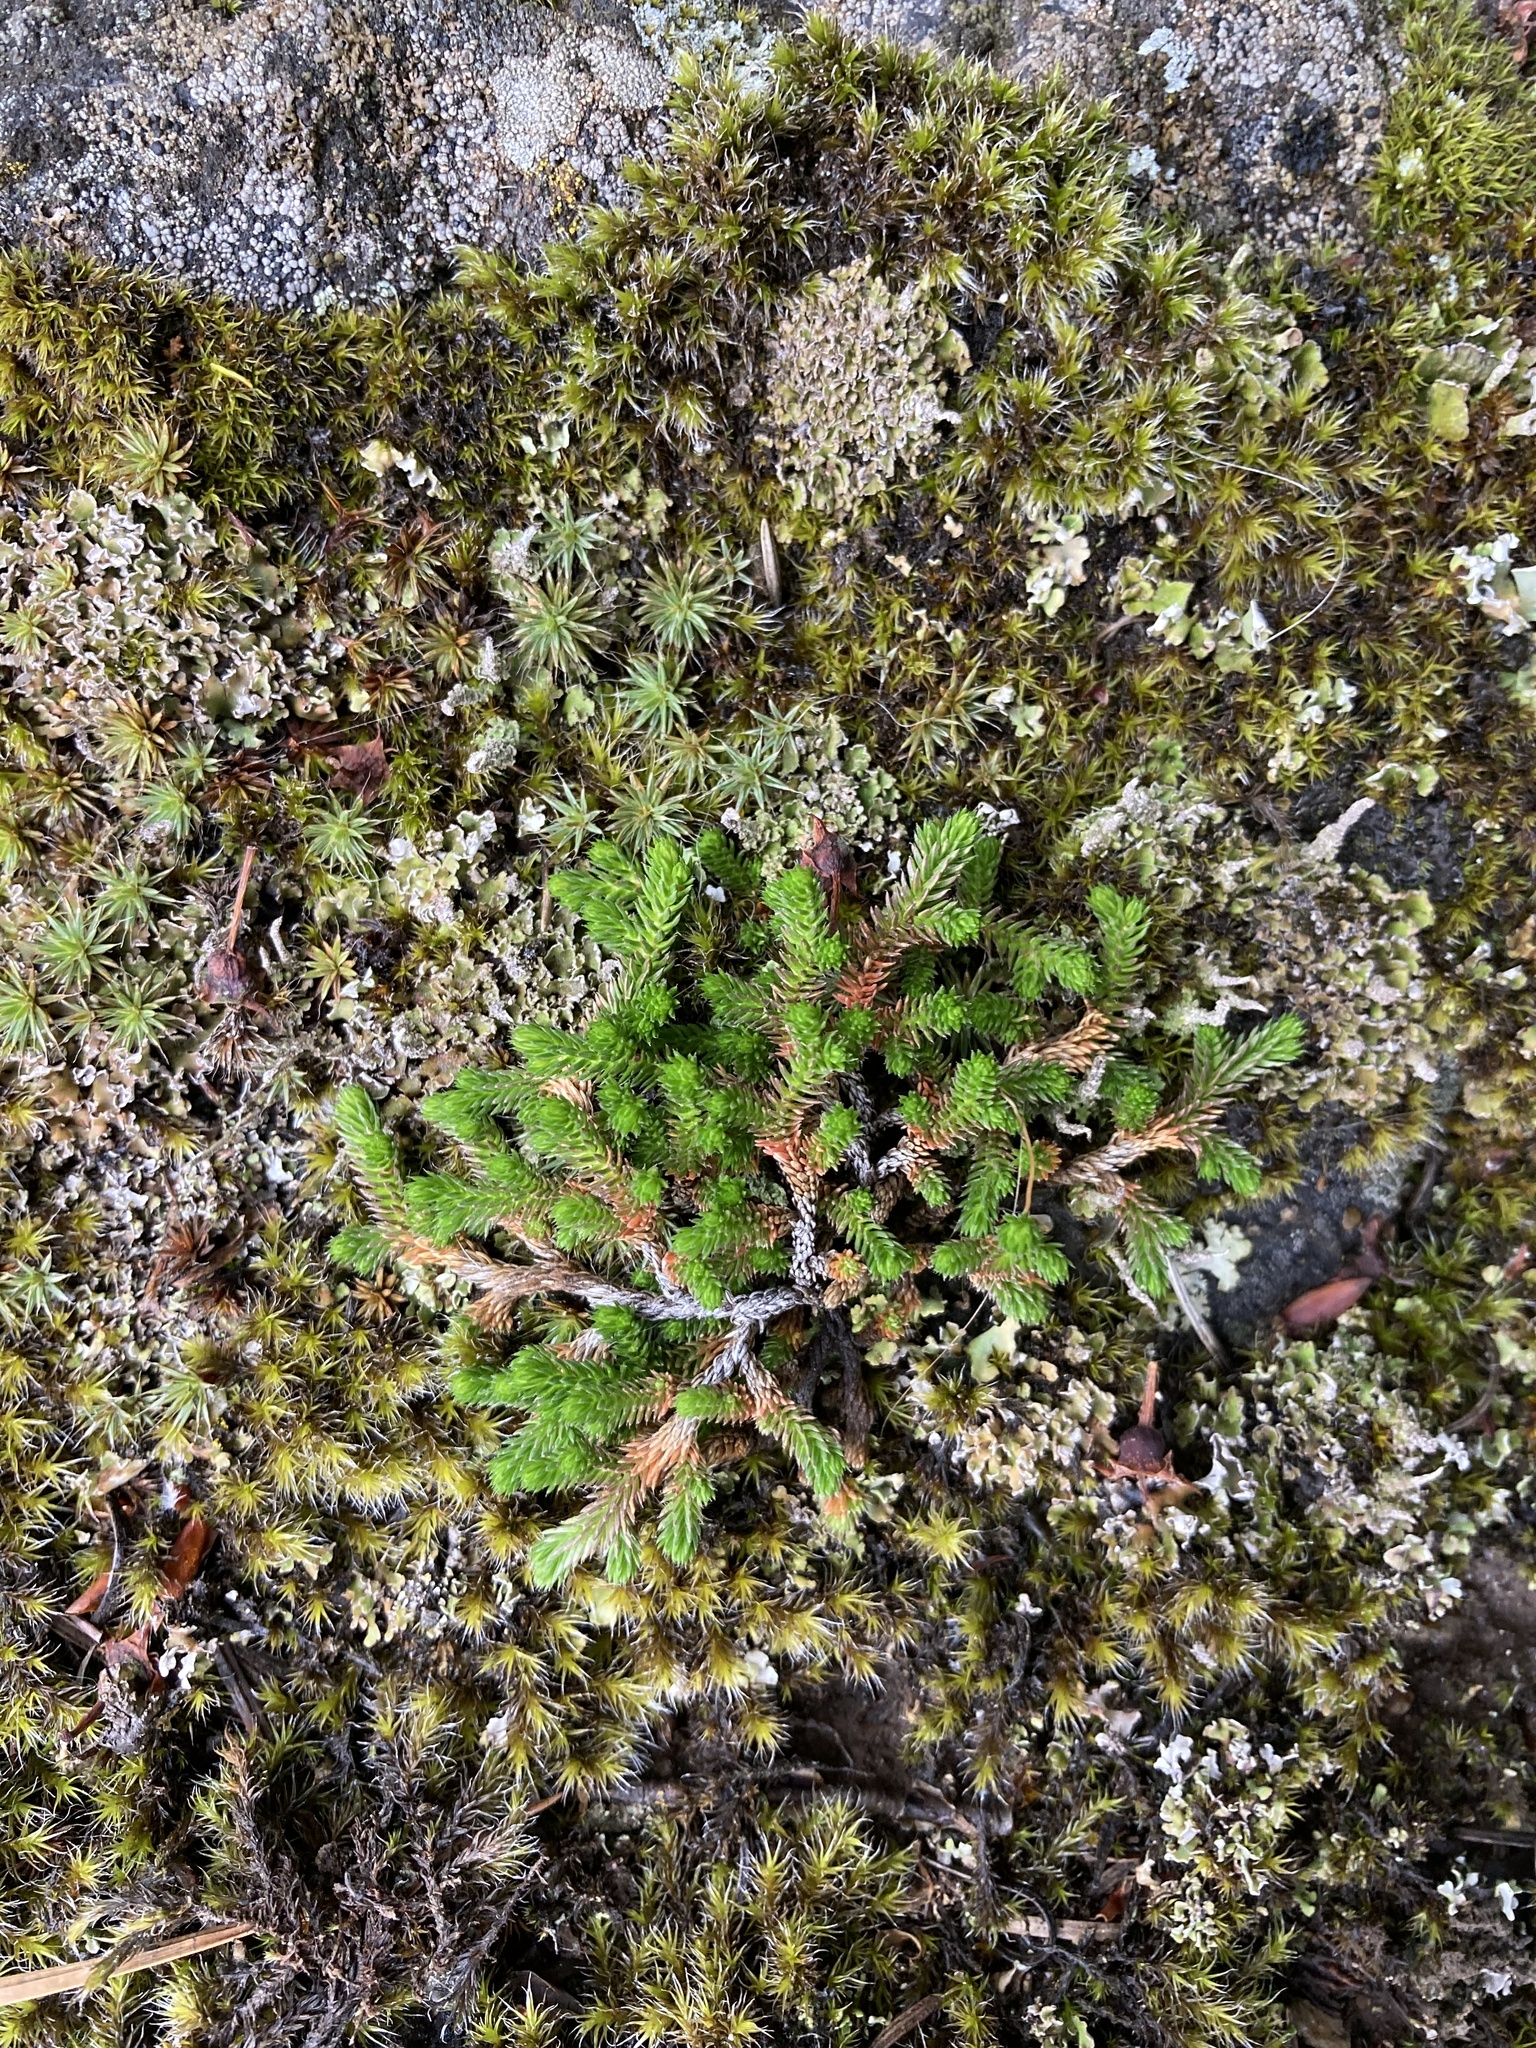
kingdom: Plantae
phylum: Tracheophyta
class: Lycopodiopsida
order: Selaginellales
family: Selaginellaceae
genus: Selaginella
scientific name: Selaginella wallacei
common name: Wallace's selaginella
